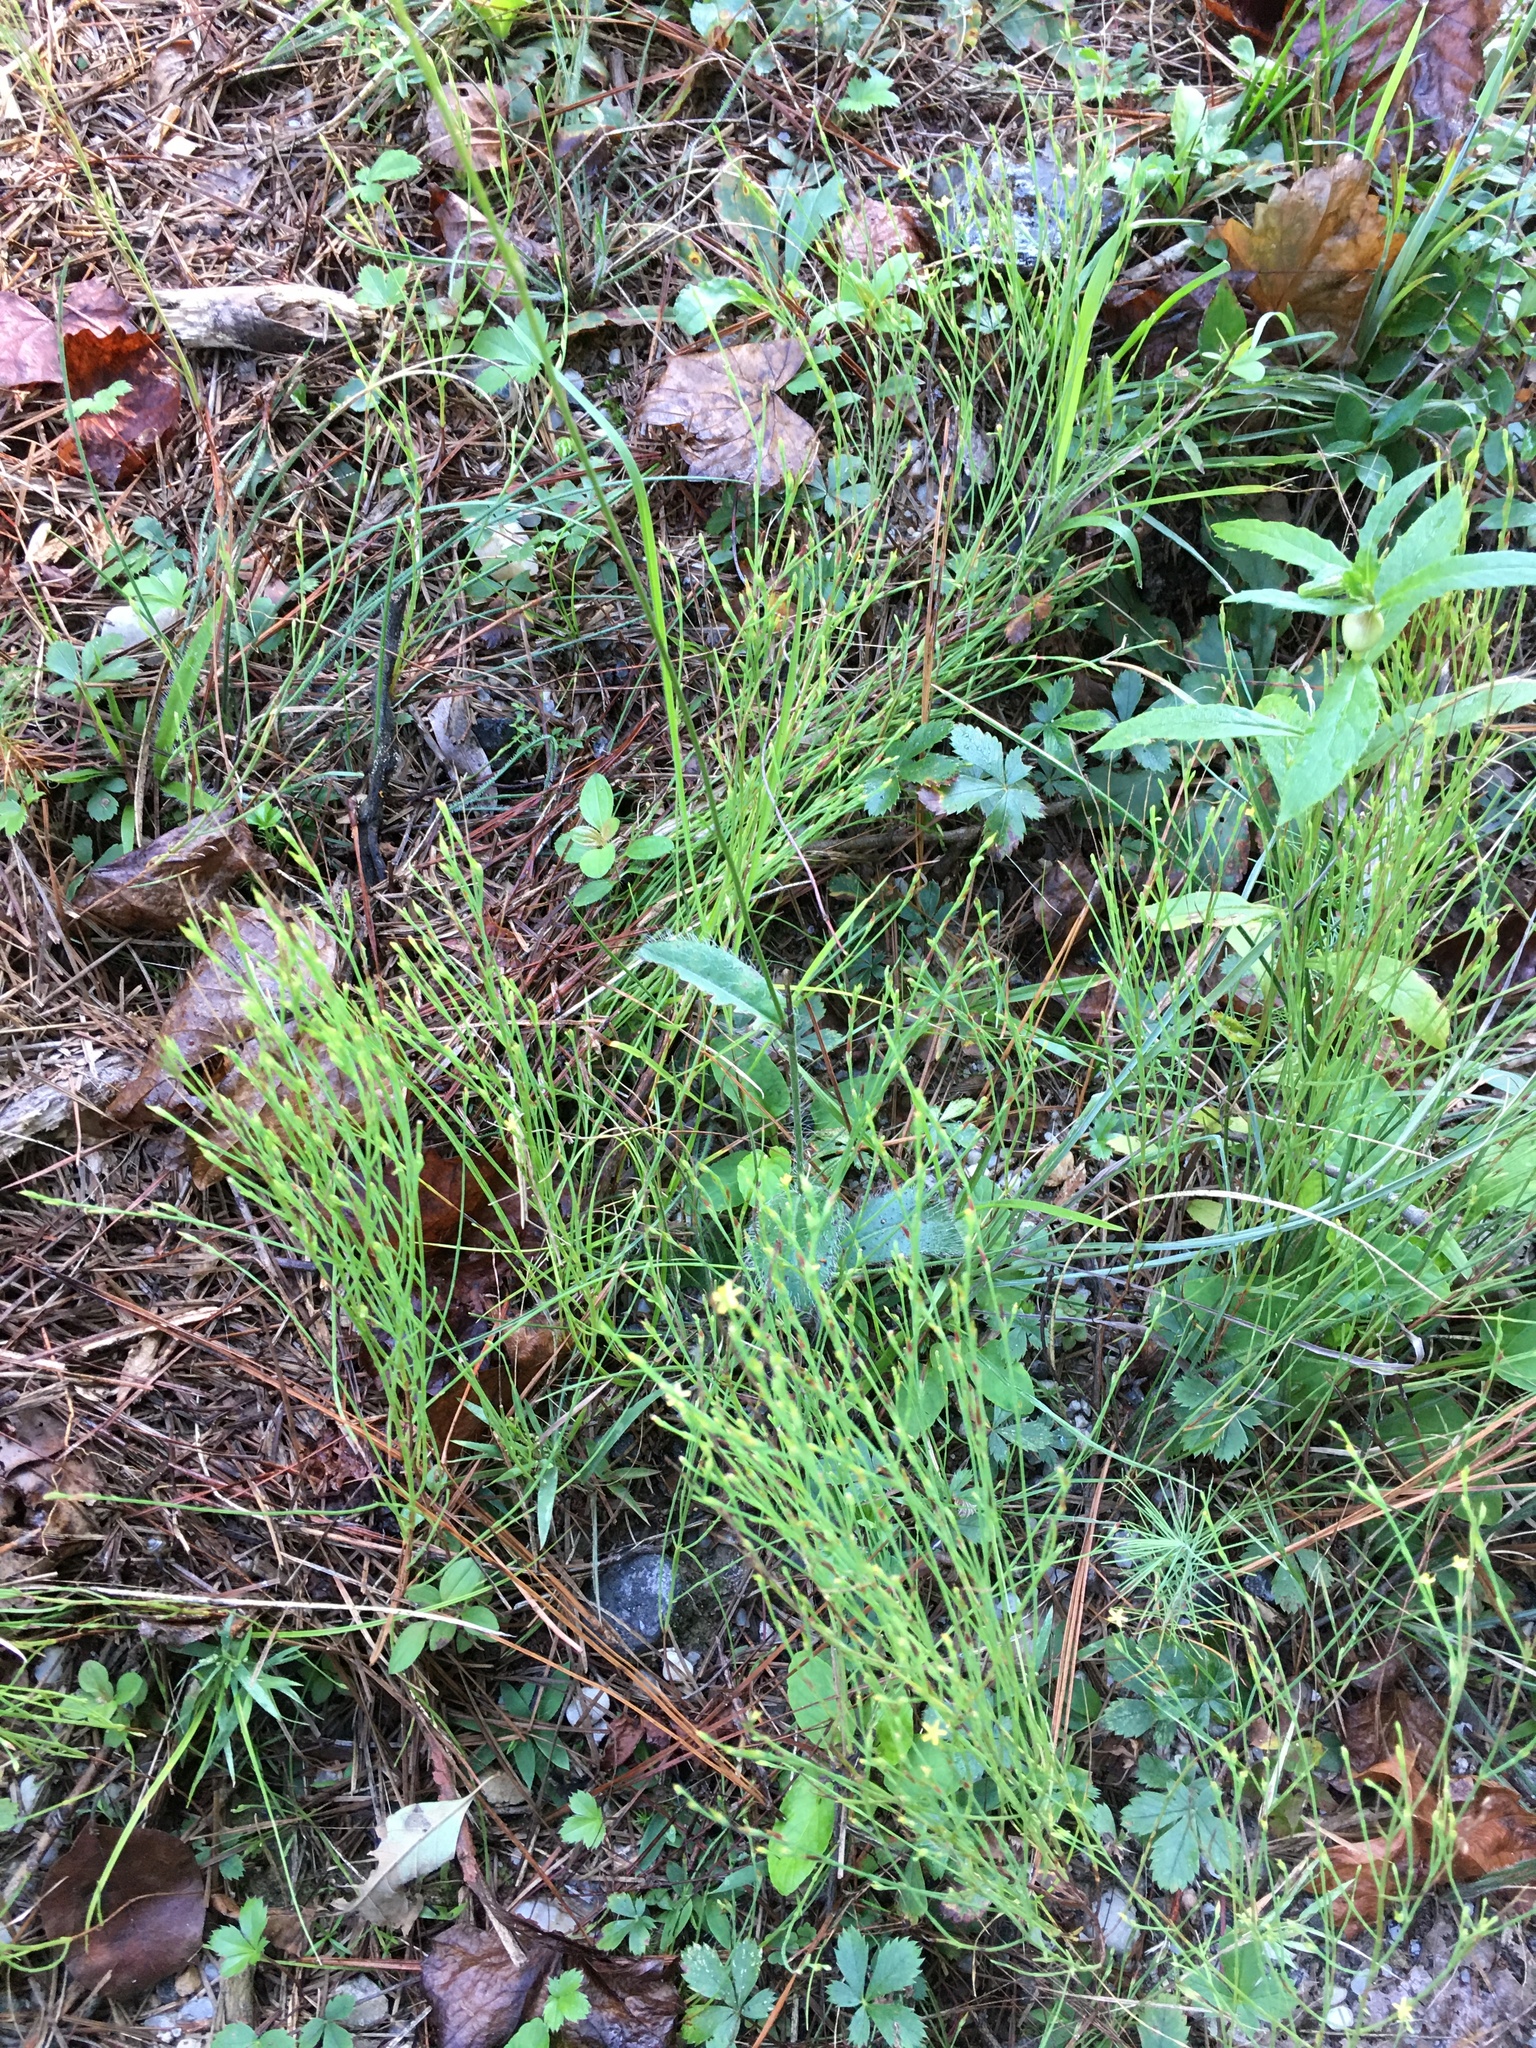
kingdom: Plantae
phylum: Tracheophyta
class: Magnoliopsida
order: Malpighiales
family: Hypericaceae
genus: Hypericum
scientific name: Hypericum gentianoides
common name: Gentian-leaved st. john's-wort
